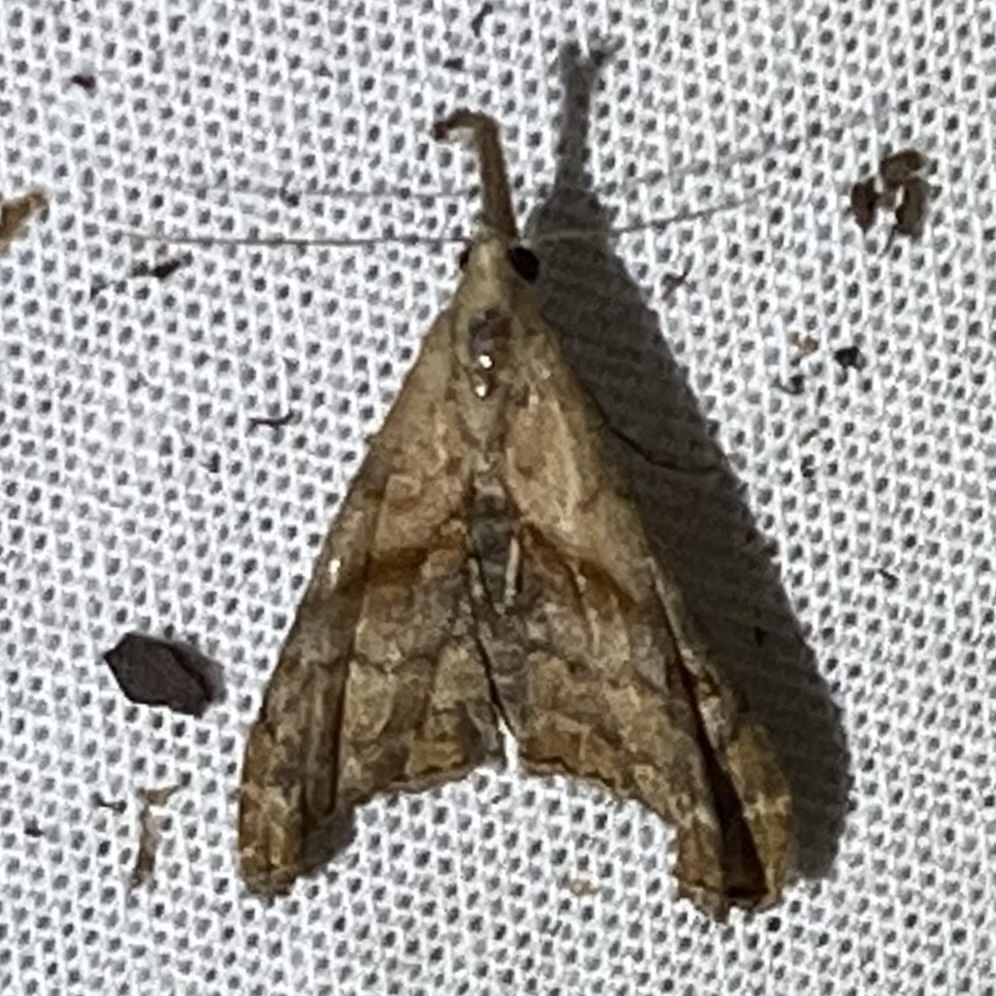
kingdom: Animalia
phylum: Arthropoda
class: Insecta
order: Lepidoptera
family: Erebidae
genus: Palthis
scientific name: Palthis angulalis
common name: Dark-spotted palthis moth
